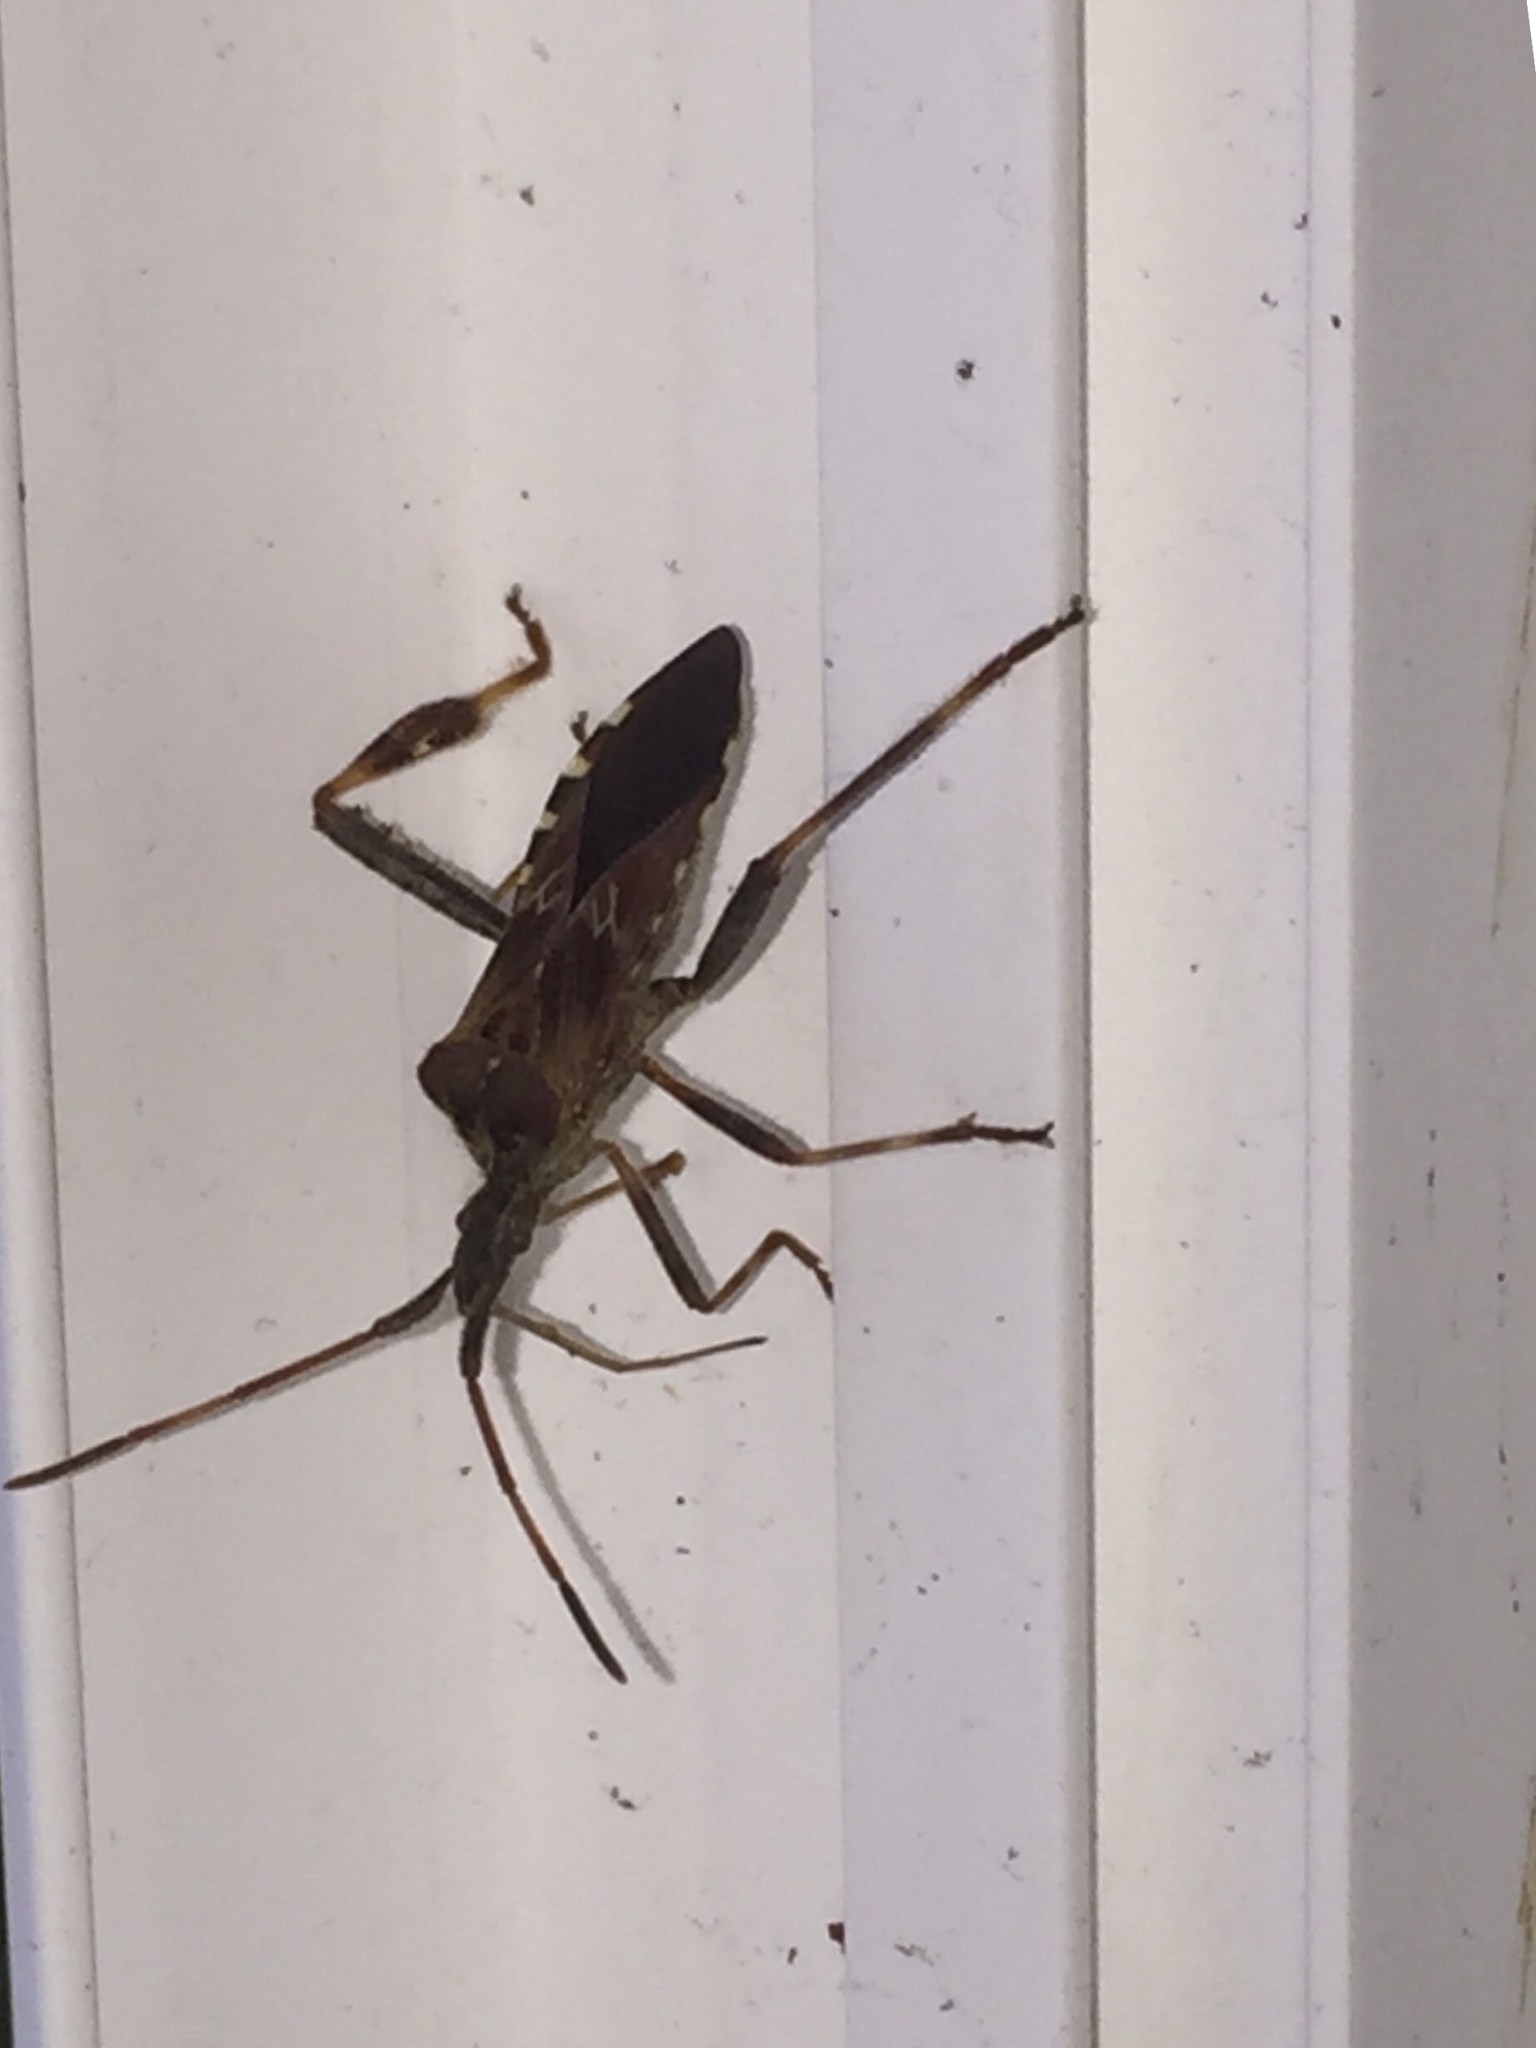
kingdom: Animalia
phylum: Arthropoda
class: Insecta
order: Hemiptera
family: Coreidae
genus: Leptoglossus
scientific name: Leptoglossus occidentalis
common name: Western conifer-seed bug
